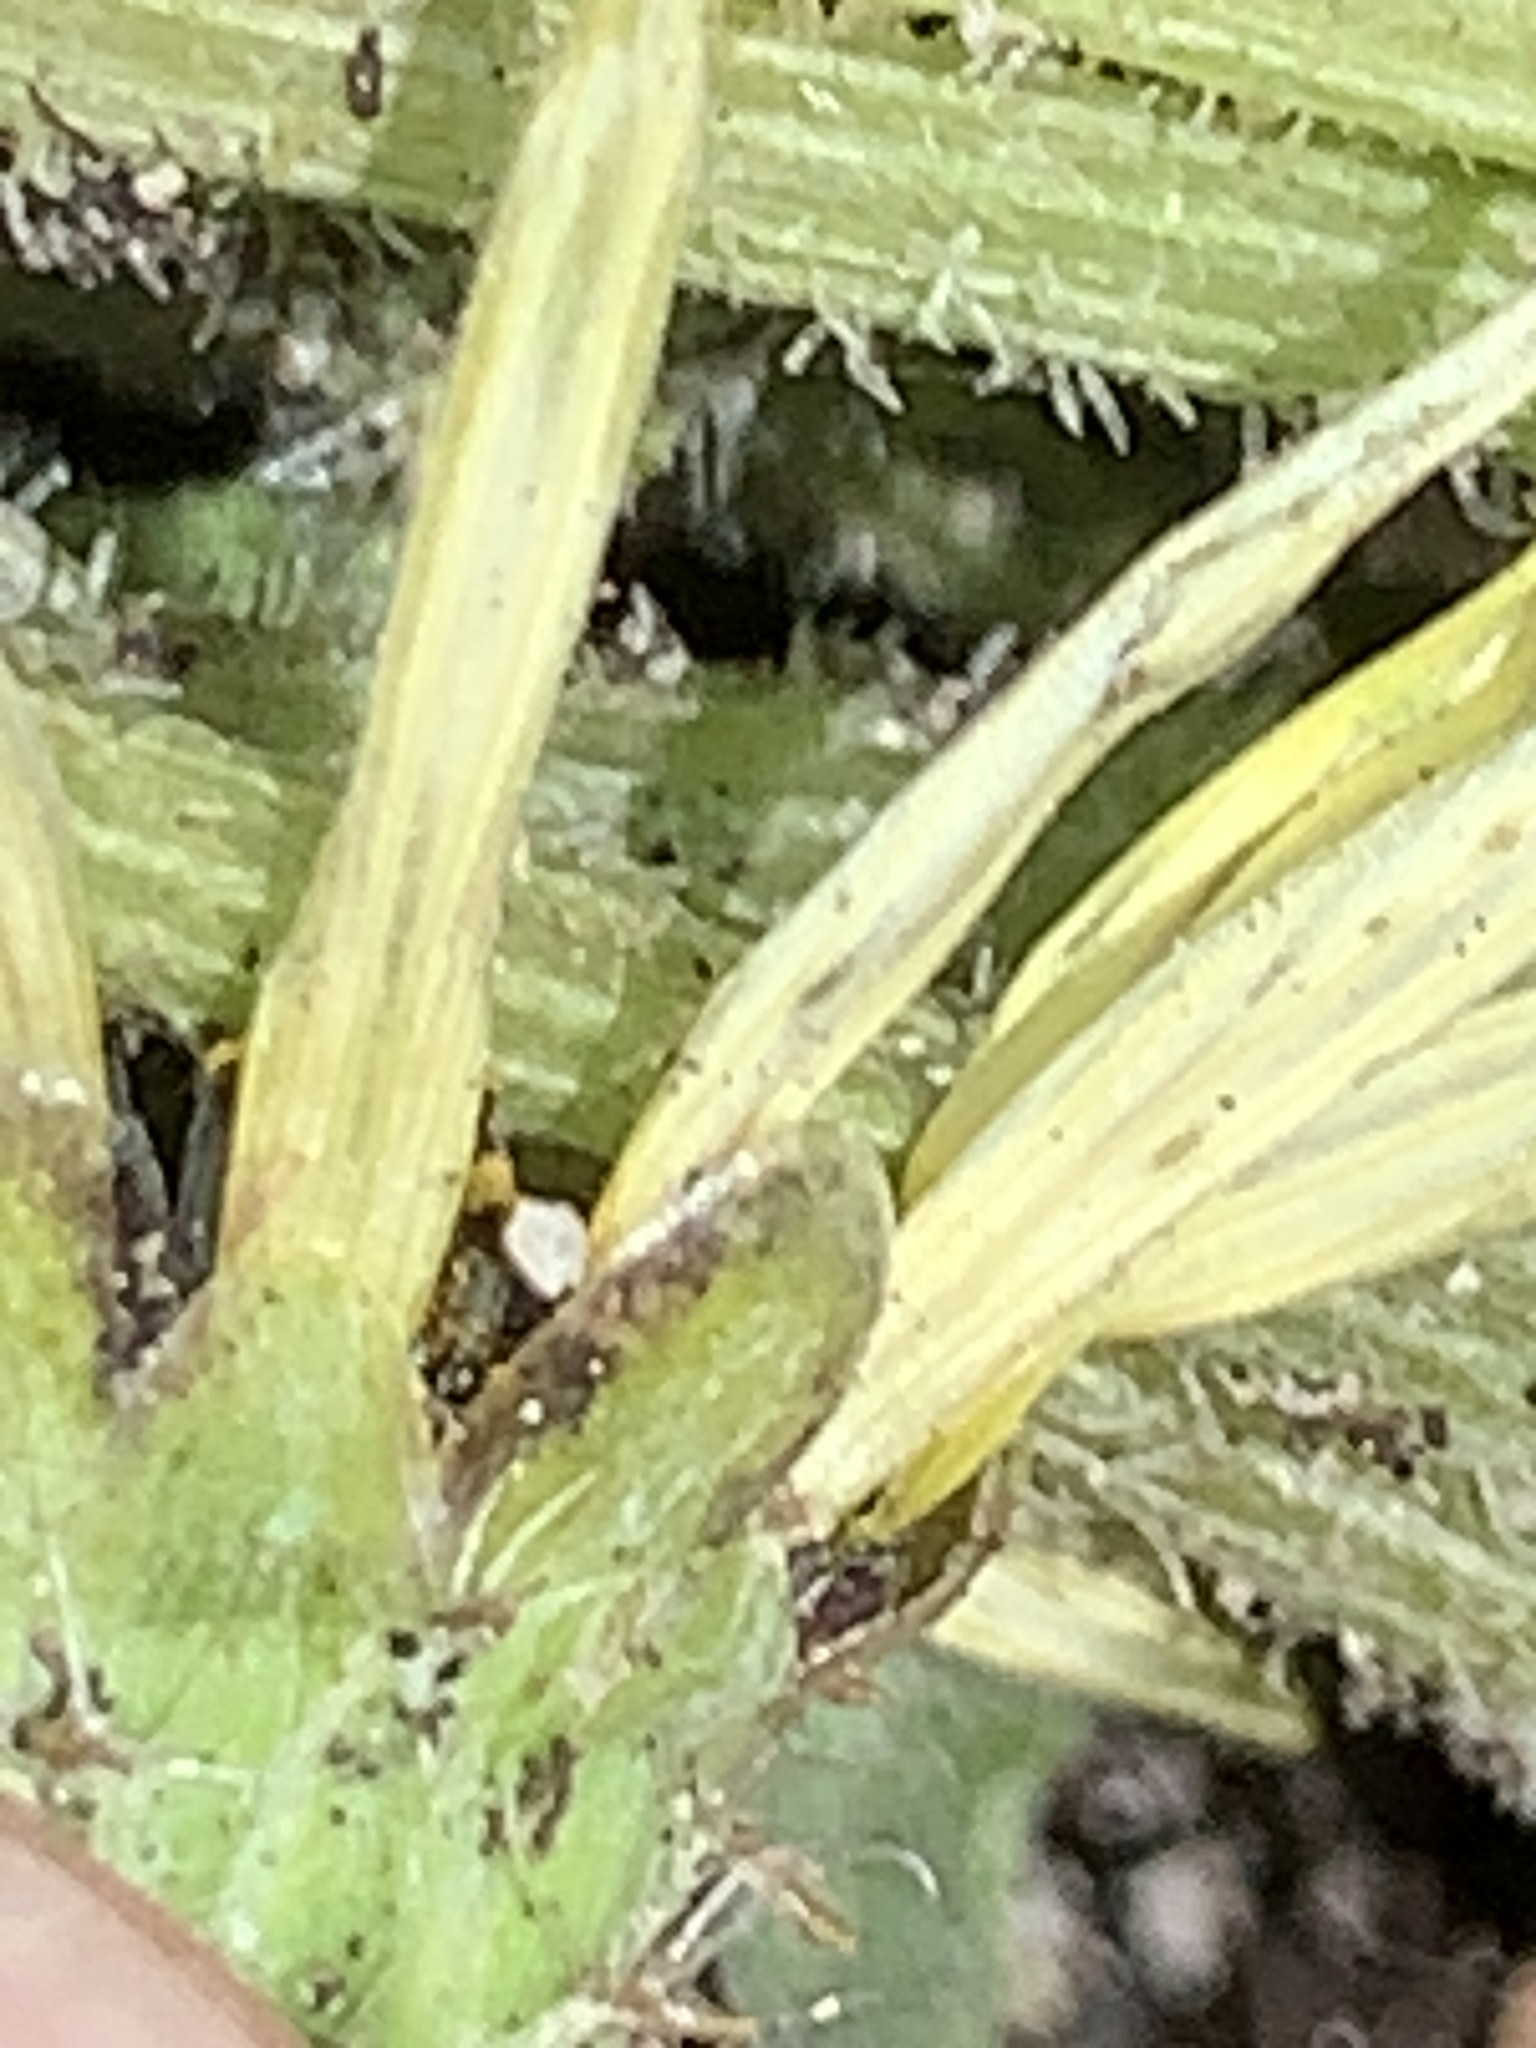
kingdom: Plantae
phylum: Tracheophyta
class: Magnoliopsida
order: Asterales
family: Asteraceae
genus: Arctotheca
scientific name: Arctotheca calendula
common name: Capeweed
